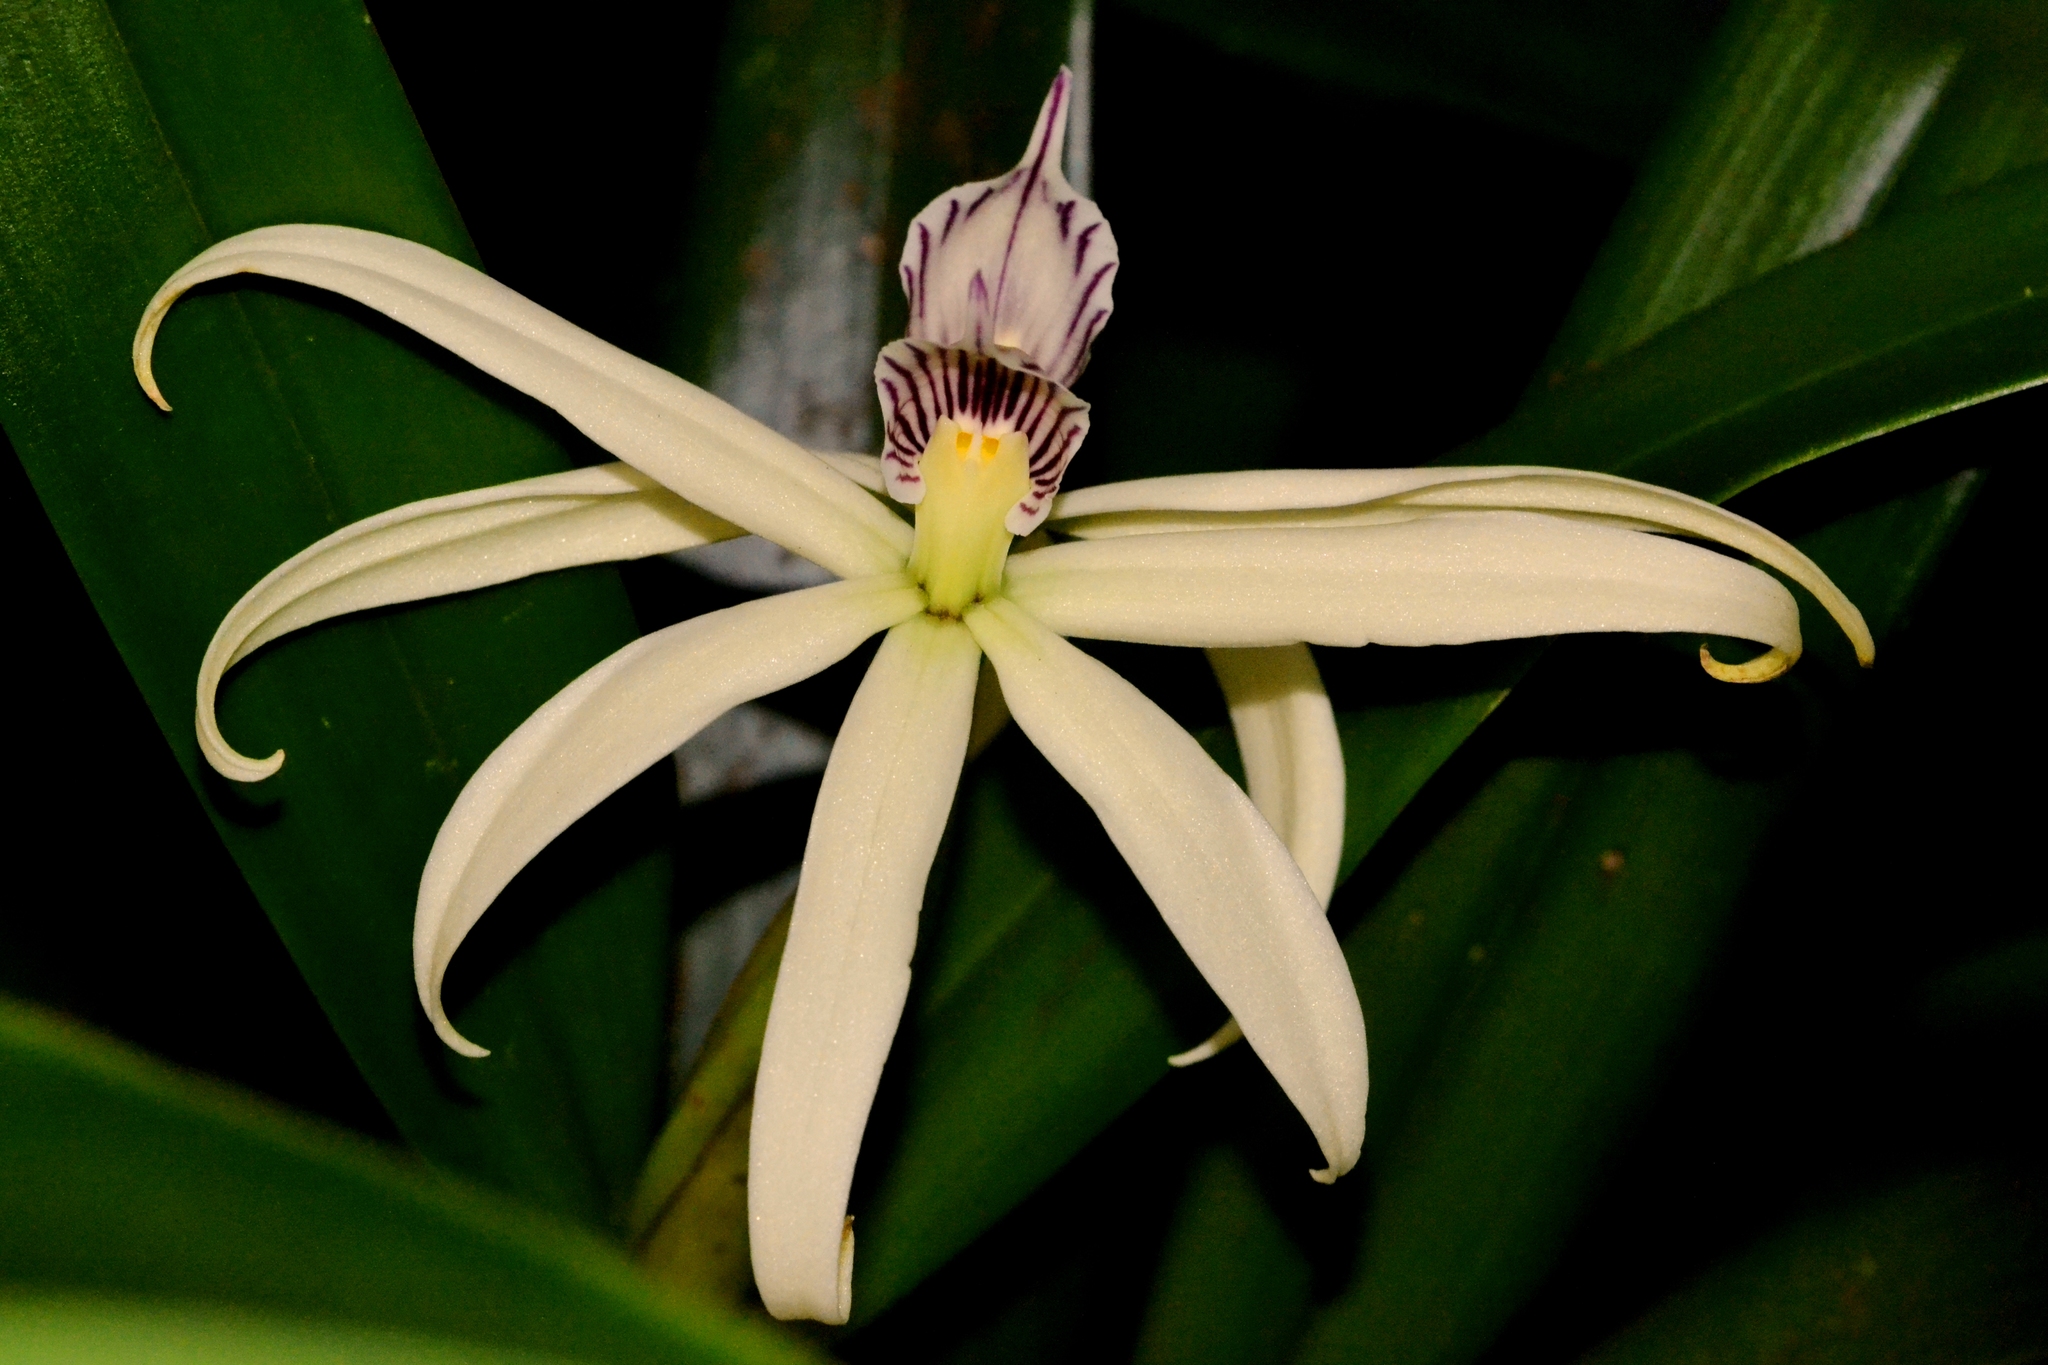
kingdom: Plantae
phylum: Tracheophyta
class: Liliopsida
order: Asparagales
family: Orchidaceae
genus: Prosthechea
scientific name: Prosthechea baculus
